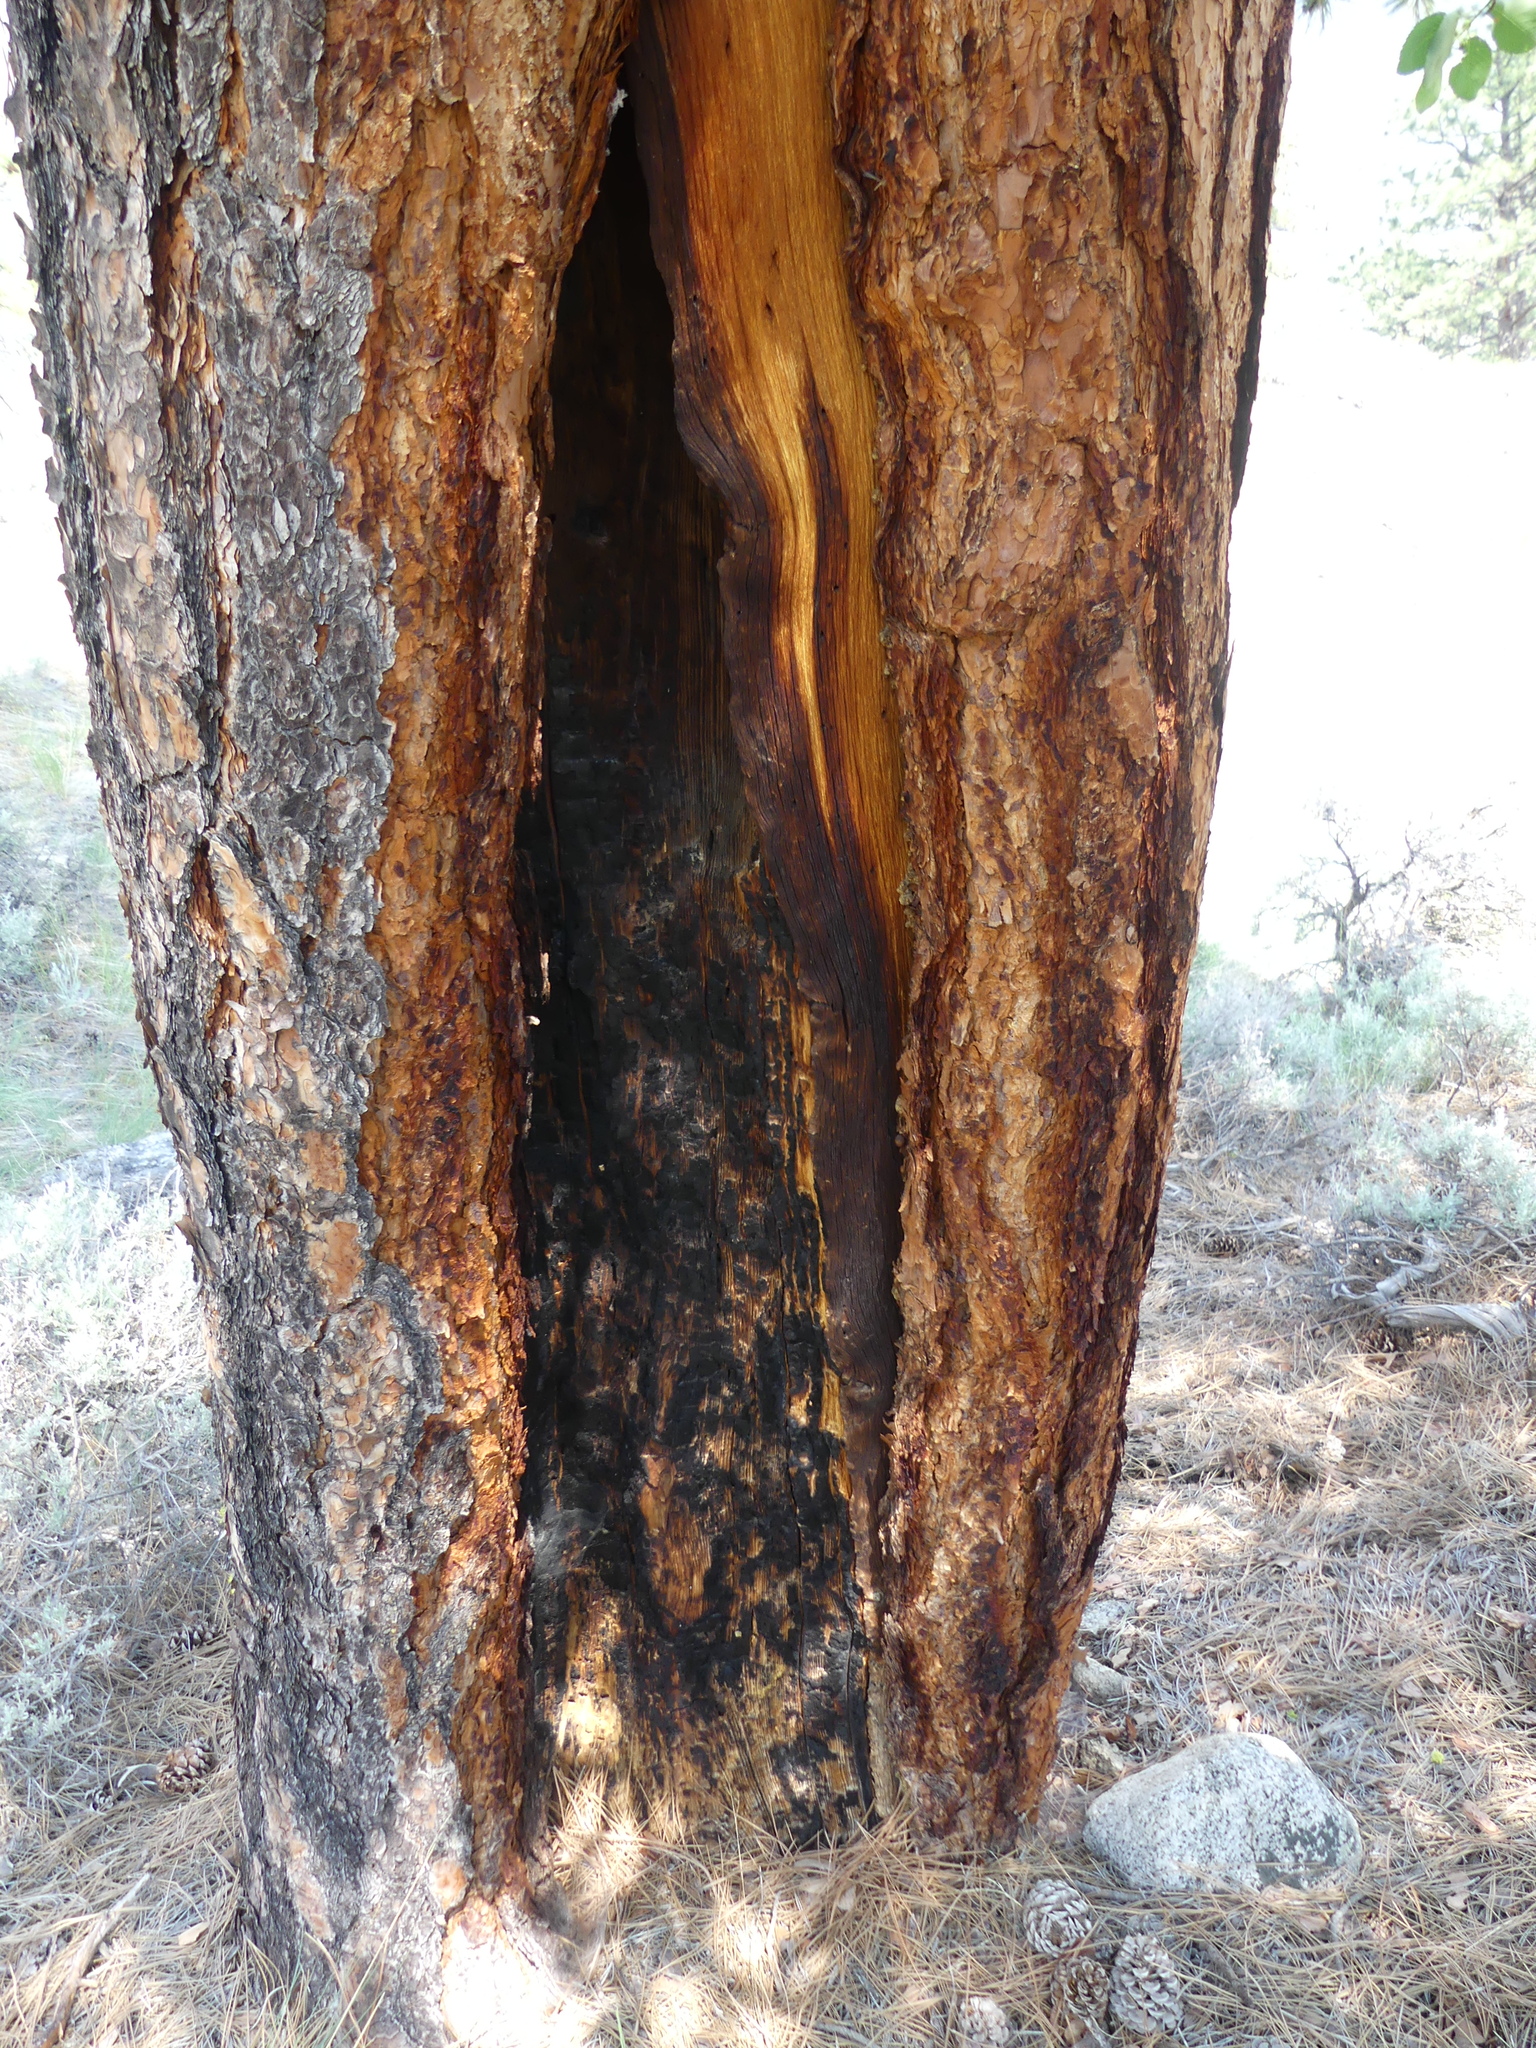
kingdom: Plantae
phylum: Tracheophyta
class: Pinopsida
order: Pinales
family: Pinaceae
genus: Pinus
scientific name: Pinus ponderosa
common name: Western yellow-pine
